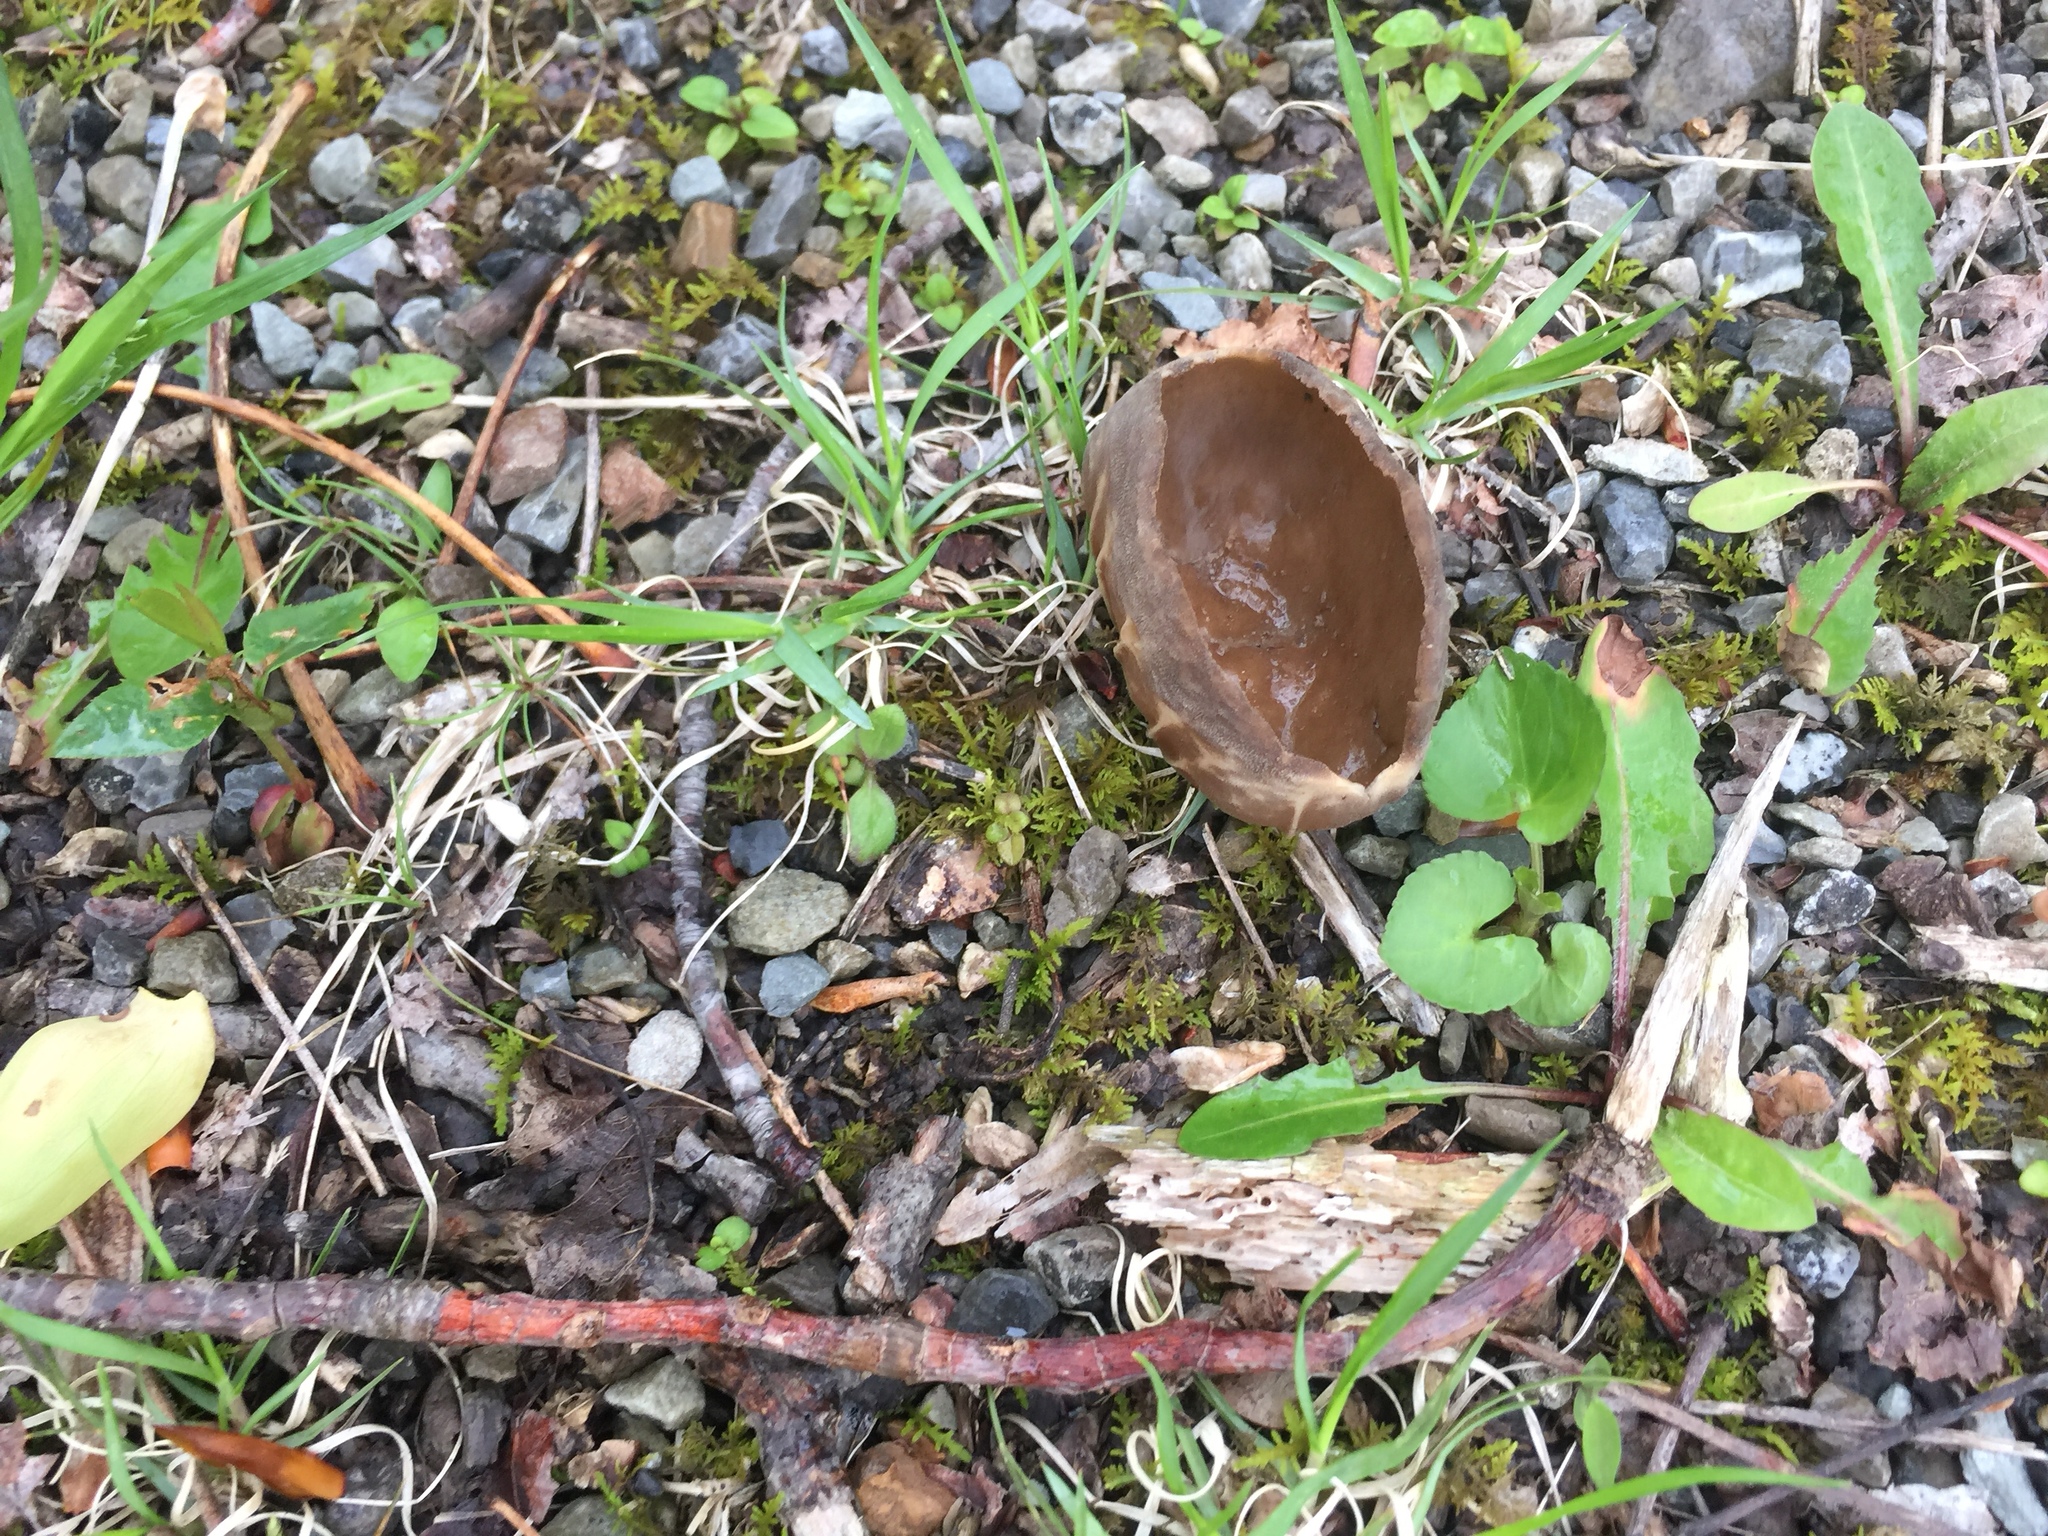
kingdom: Fungi
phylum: Ascomycota
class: Pezizomycetes
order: Pezizales
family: Helvellaceae
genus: Helvella
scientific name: Helvella acetabulum
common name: Vinegar cup
